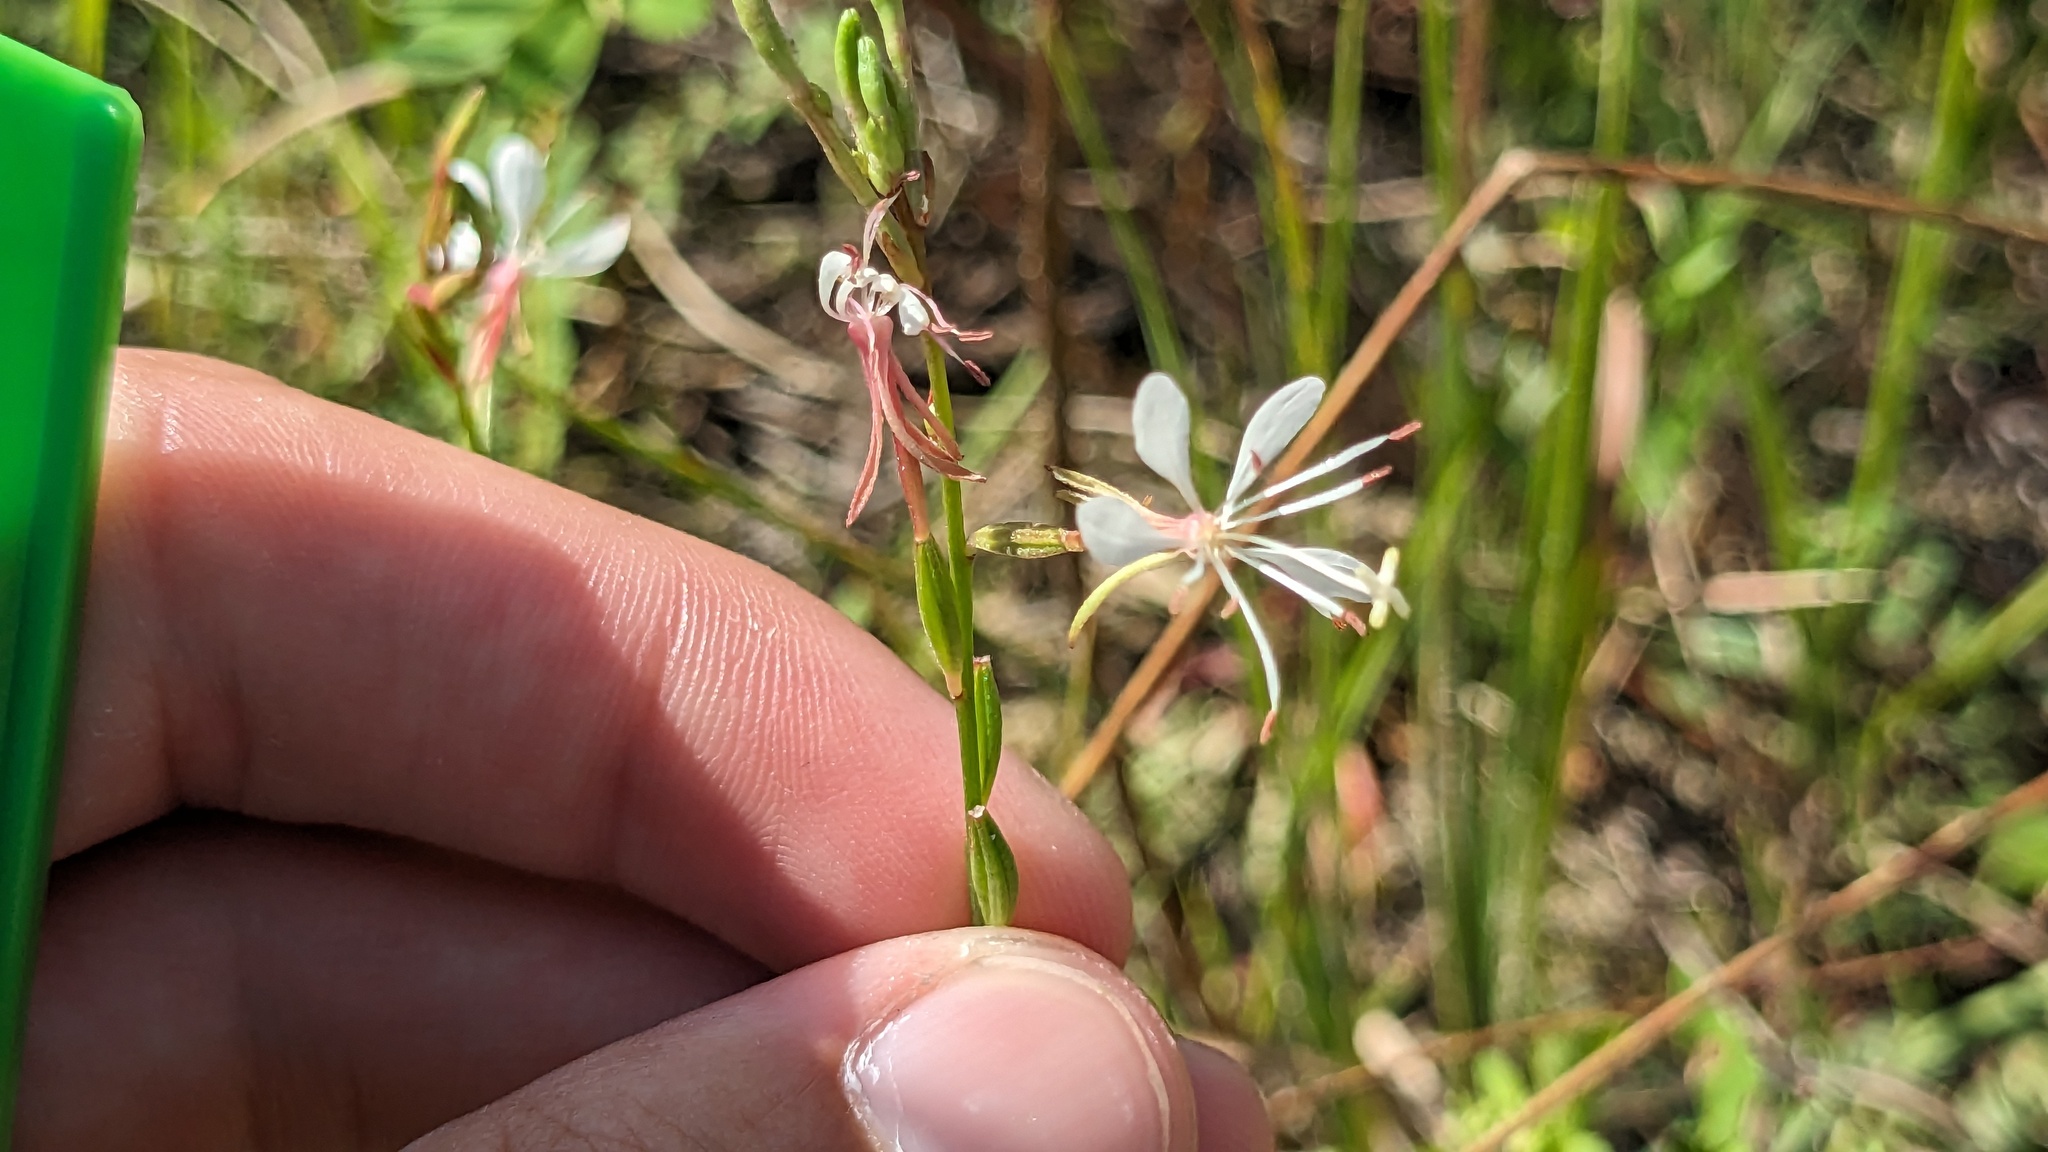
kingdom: Plantae
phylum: Tracheophyta
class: Magnoliopsida
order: Myrtales
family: Onagraceae
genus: Oenothera
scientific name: Oenothera simulans
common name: Southern beeblossom
